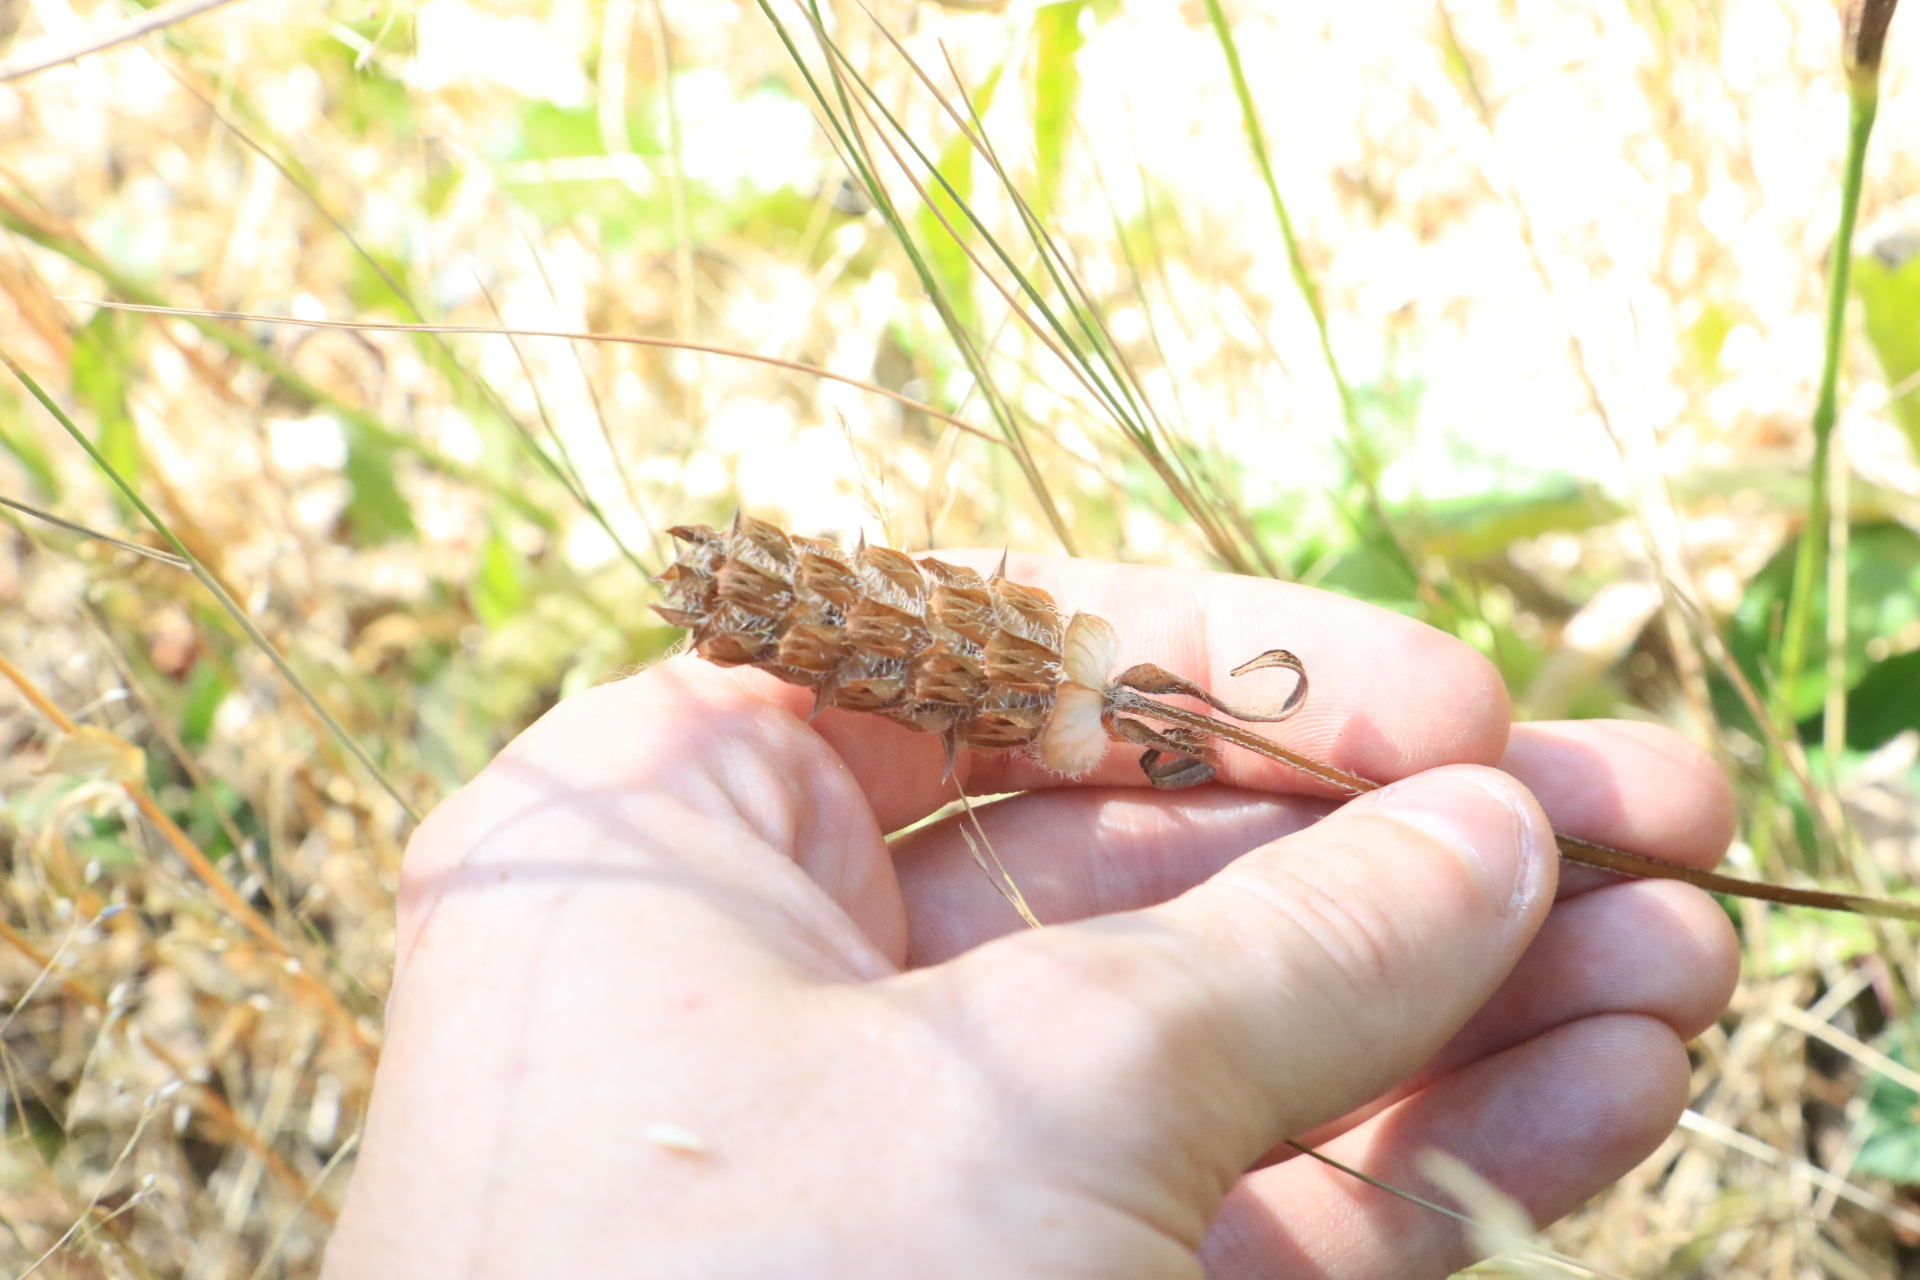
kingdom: Plantae
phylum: Tracheophyta
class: Magnoliopsida
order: Lamiales
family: Lamiaceae
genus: Prunella
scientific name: Prunella vulgaris
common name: Heal-all
